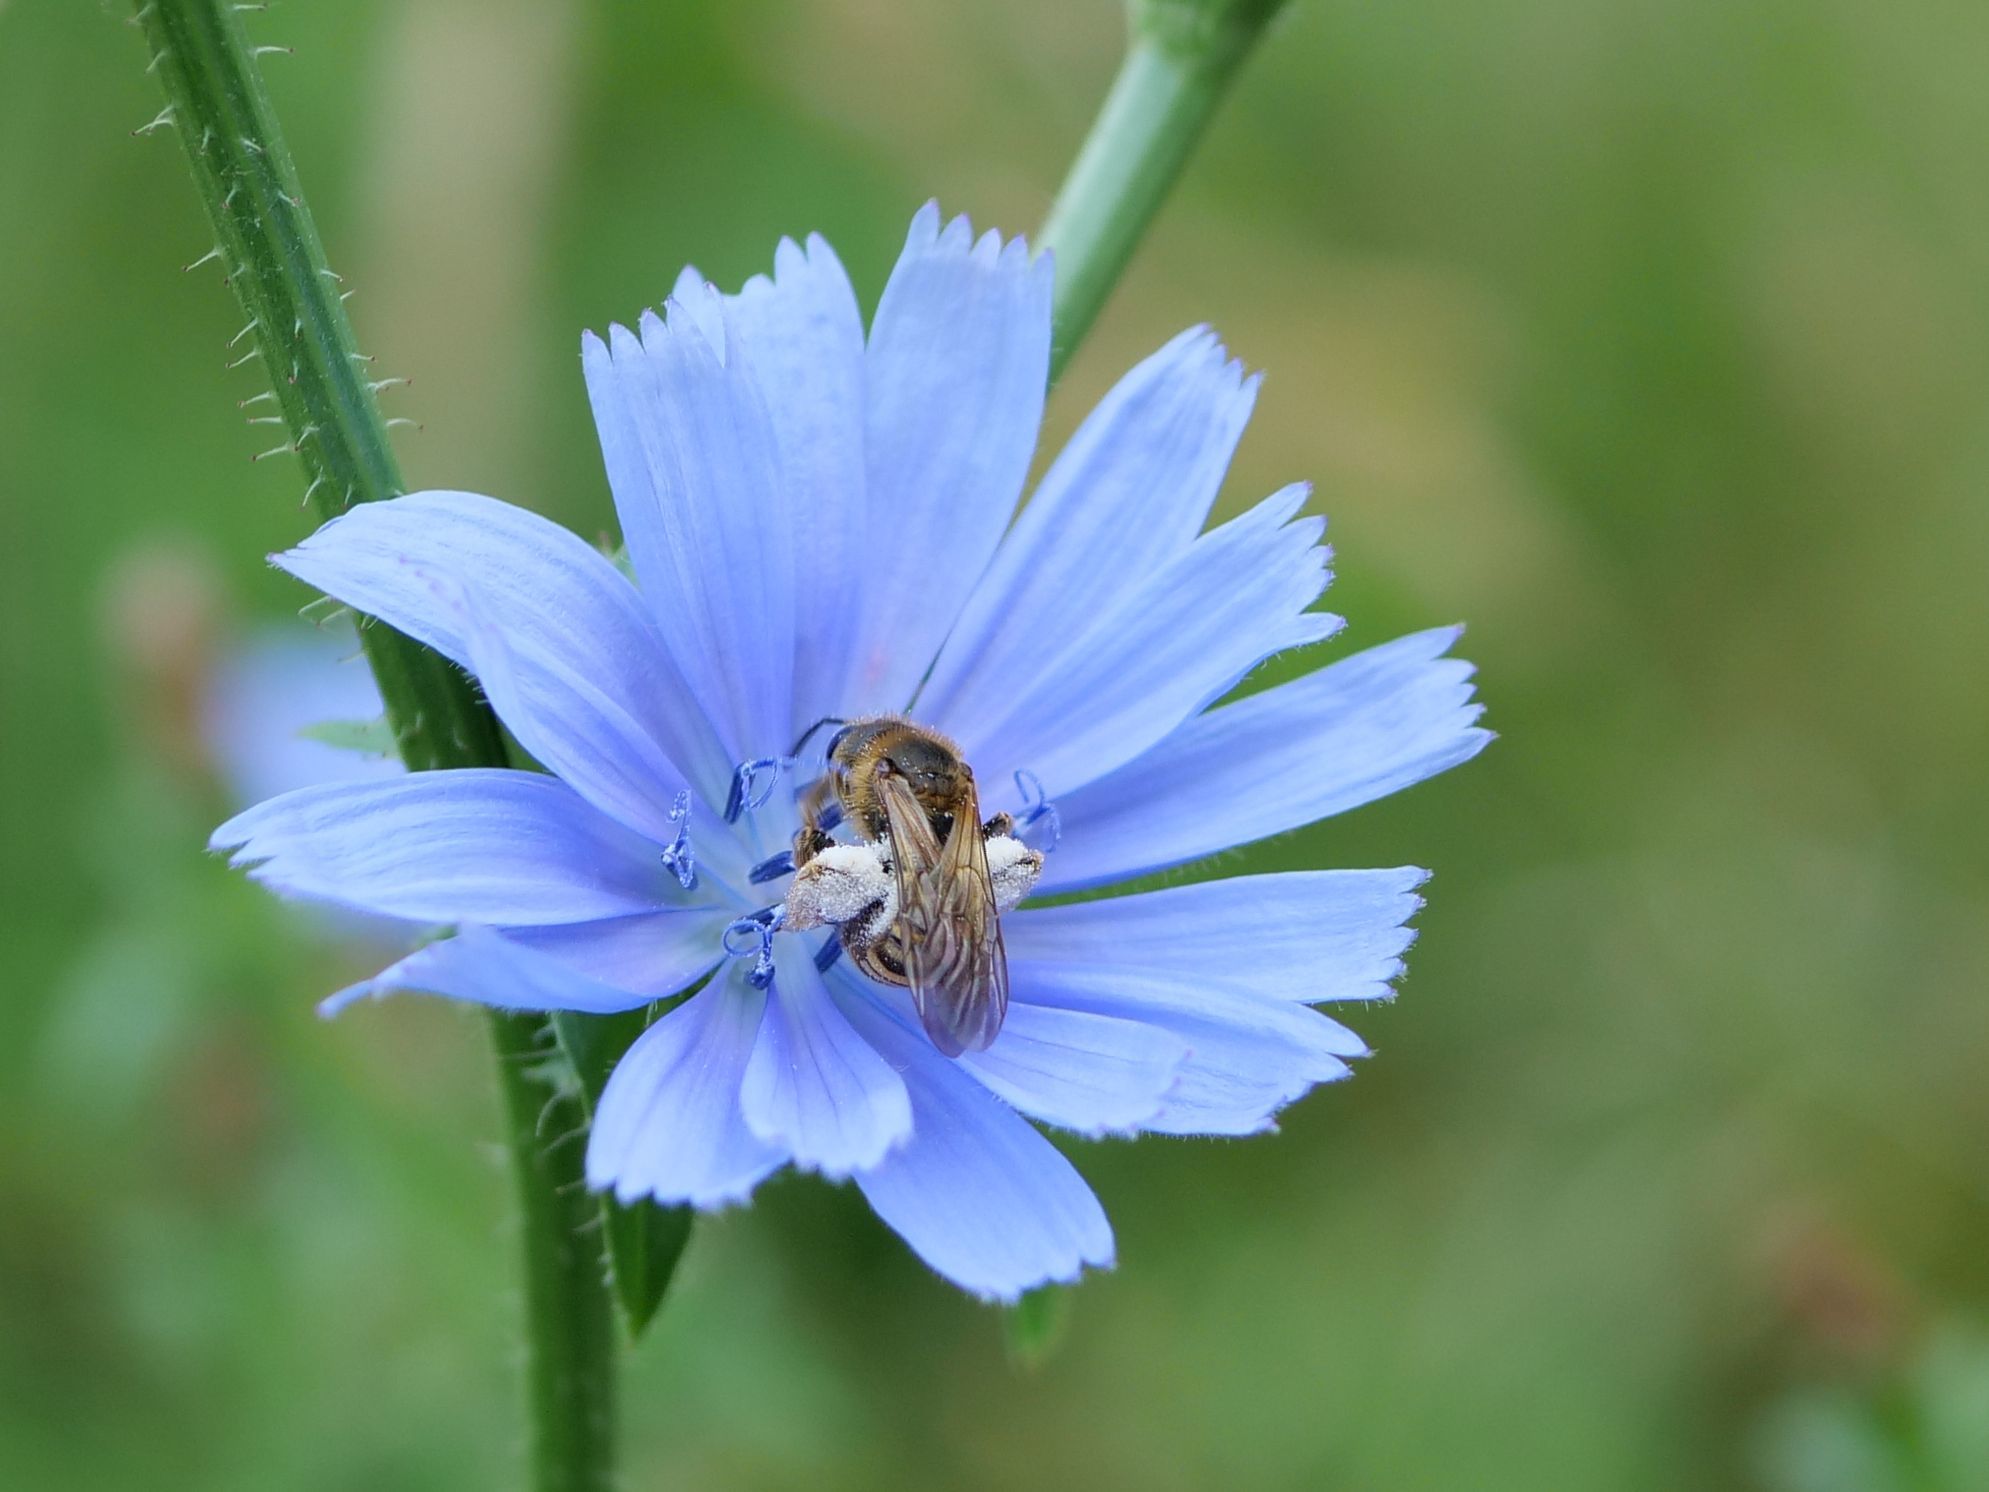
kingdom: Animalia
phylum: Arthropoda
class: Insecta
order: Hymenoptera
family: Halictidae
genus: Halictus
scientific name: Halictus scabiosae
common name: Great banded furrow bee
